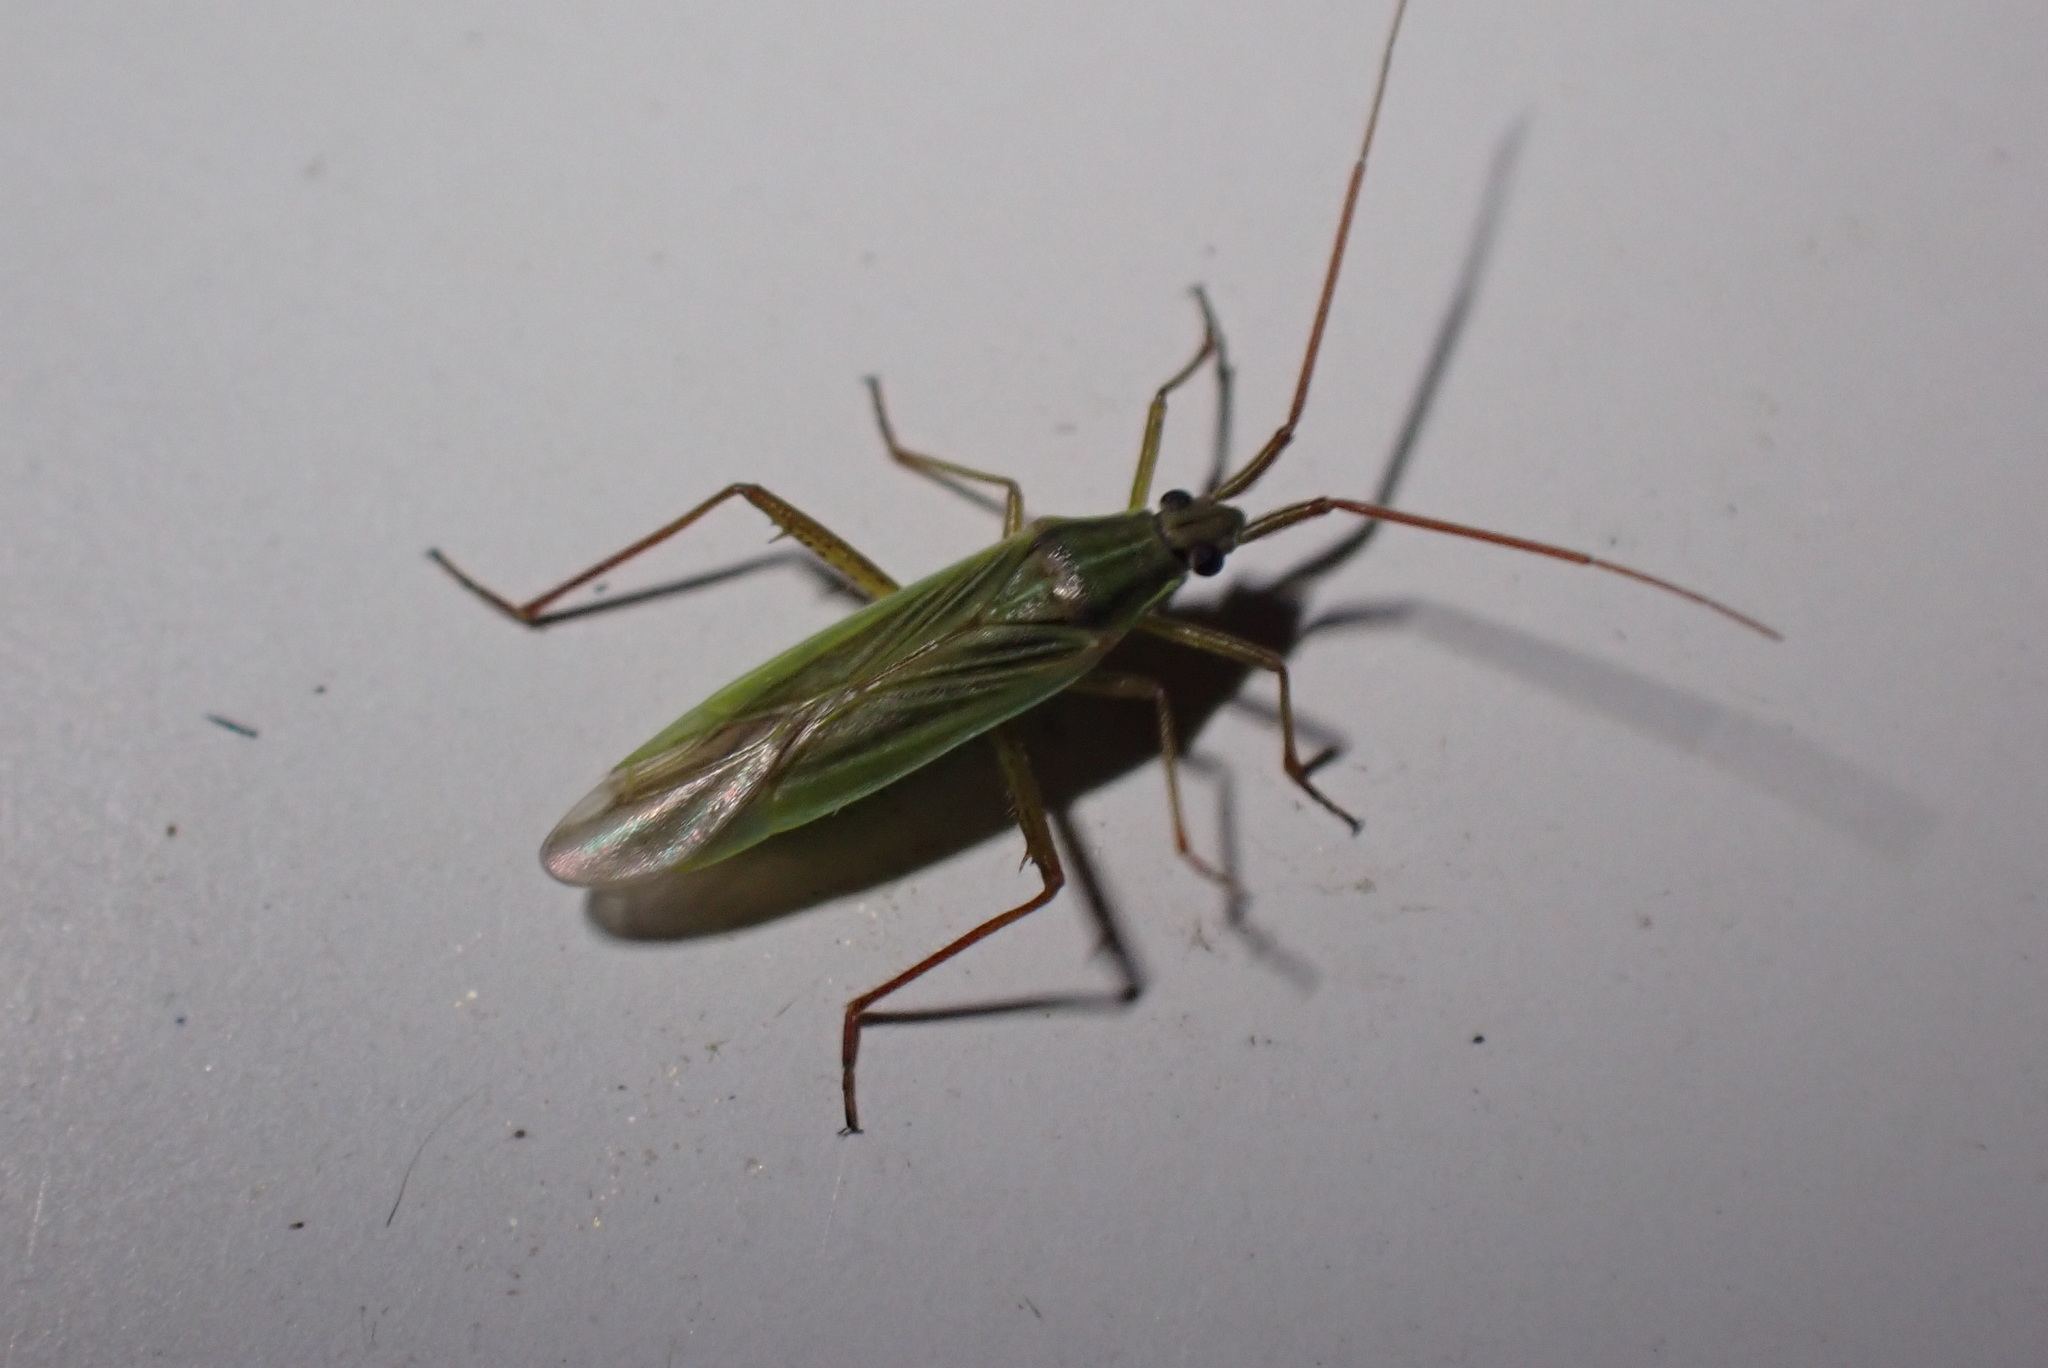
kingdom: Animalia
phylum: Arthropoda
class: Insecta
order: Hemiptera
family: Miridae
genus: Stenodema
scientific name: Stenodema calcarata
